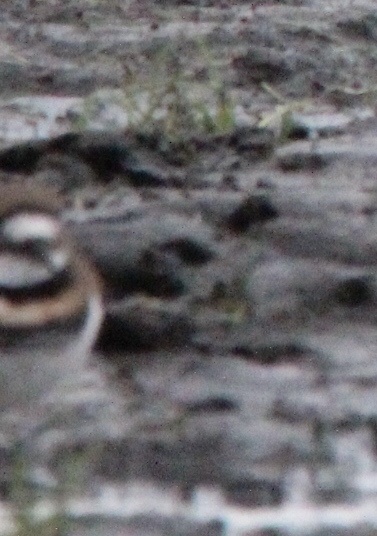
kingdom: Animalia
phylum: Chordata
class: Aves
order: Charadriiformes
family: Charadriidae
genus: Charadrius
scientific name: Charadrius vociferus
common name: Killdeer
